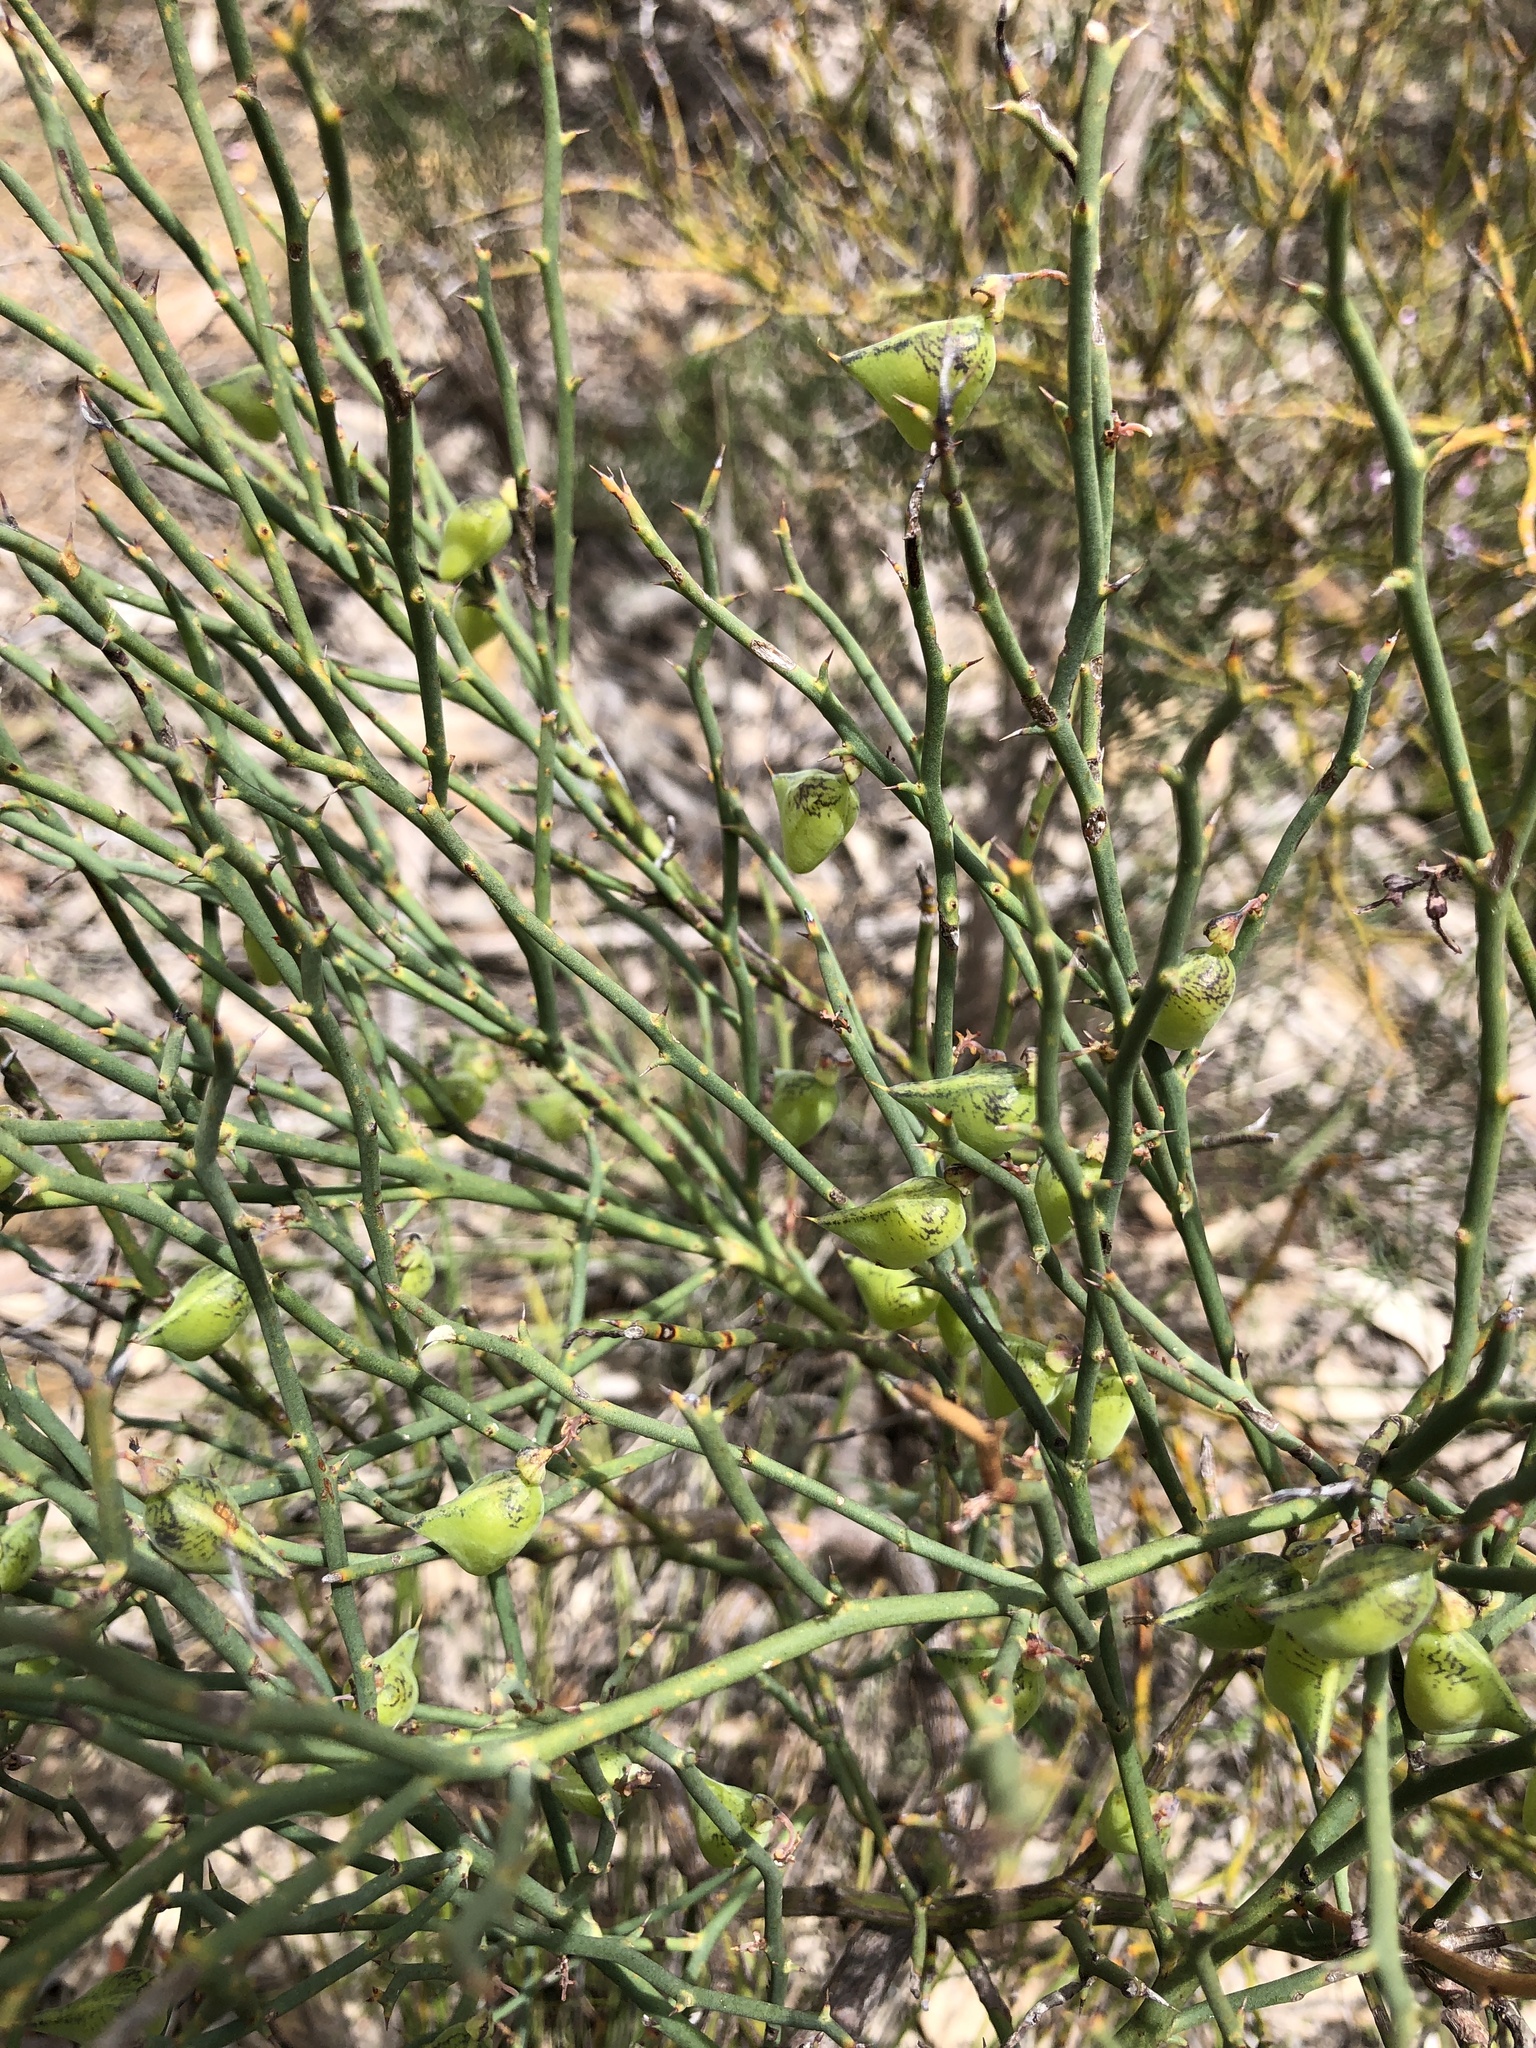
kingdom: Plantae
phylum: Tracheophyta
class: Magnoliopsida
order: Fabales
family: Fabaceae
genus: Daviesia
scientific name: Daviesia brevifolia
